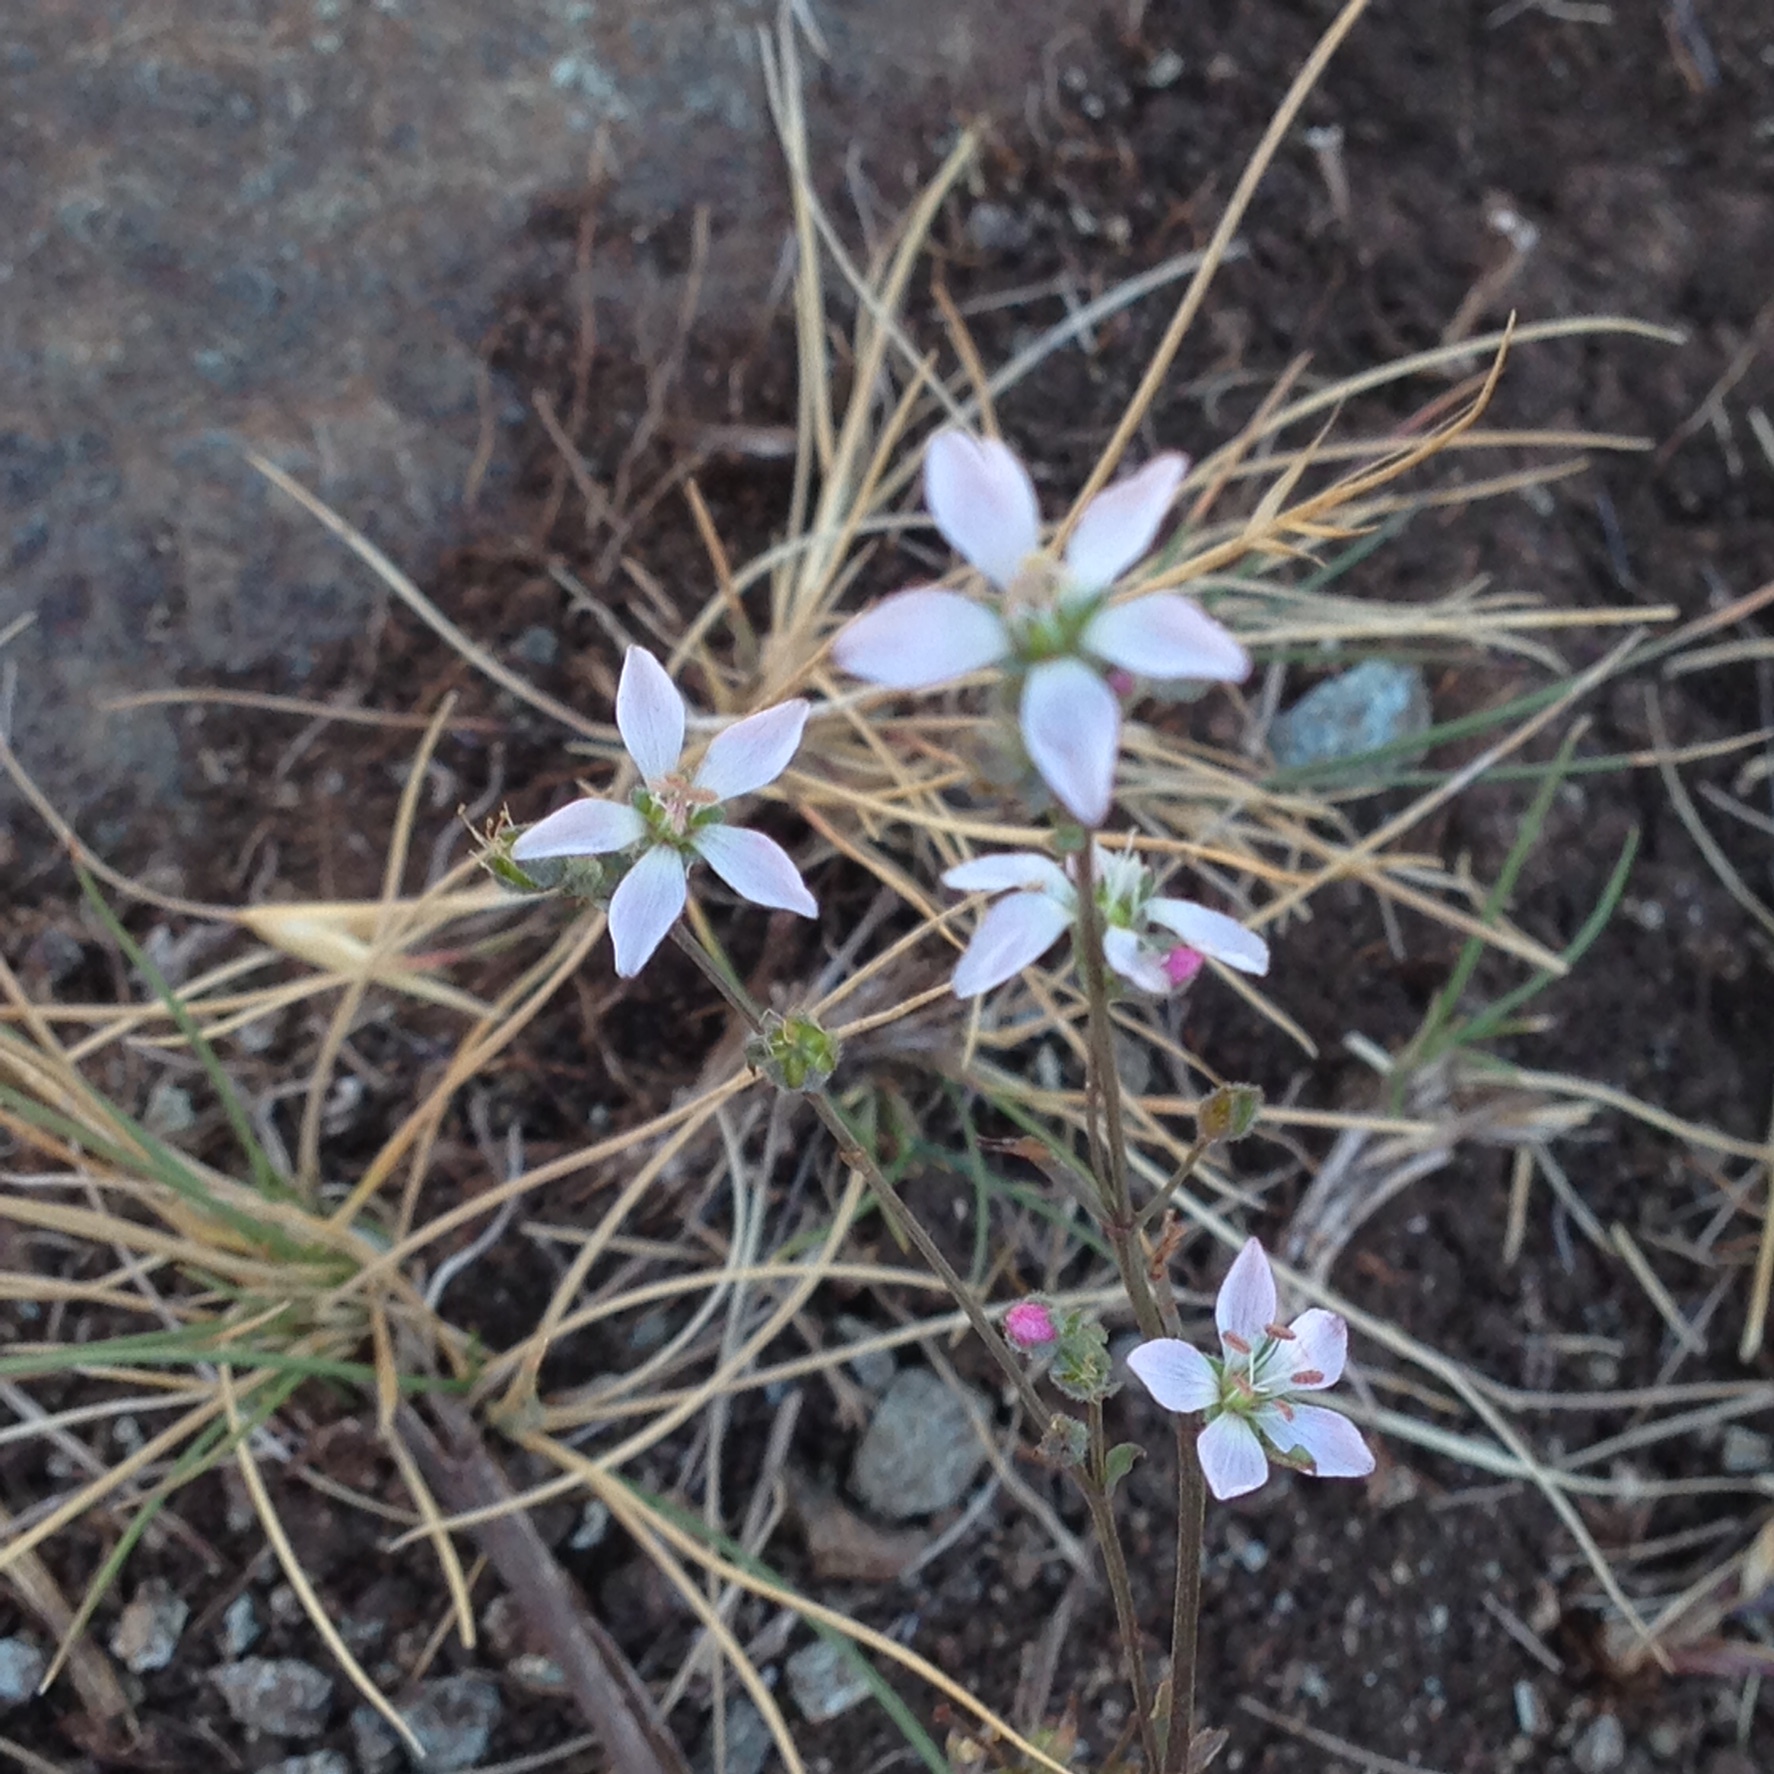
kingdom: Plantae
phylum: Tracheophyta
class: Magnoliopsida
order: Malpighiales
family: Linaceae
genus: Hesperolinon
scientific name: Hesperolinon congestum
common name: Marin dwarf-flax
